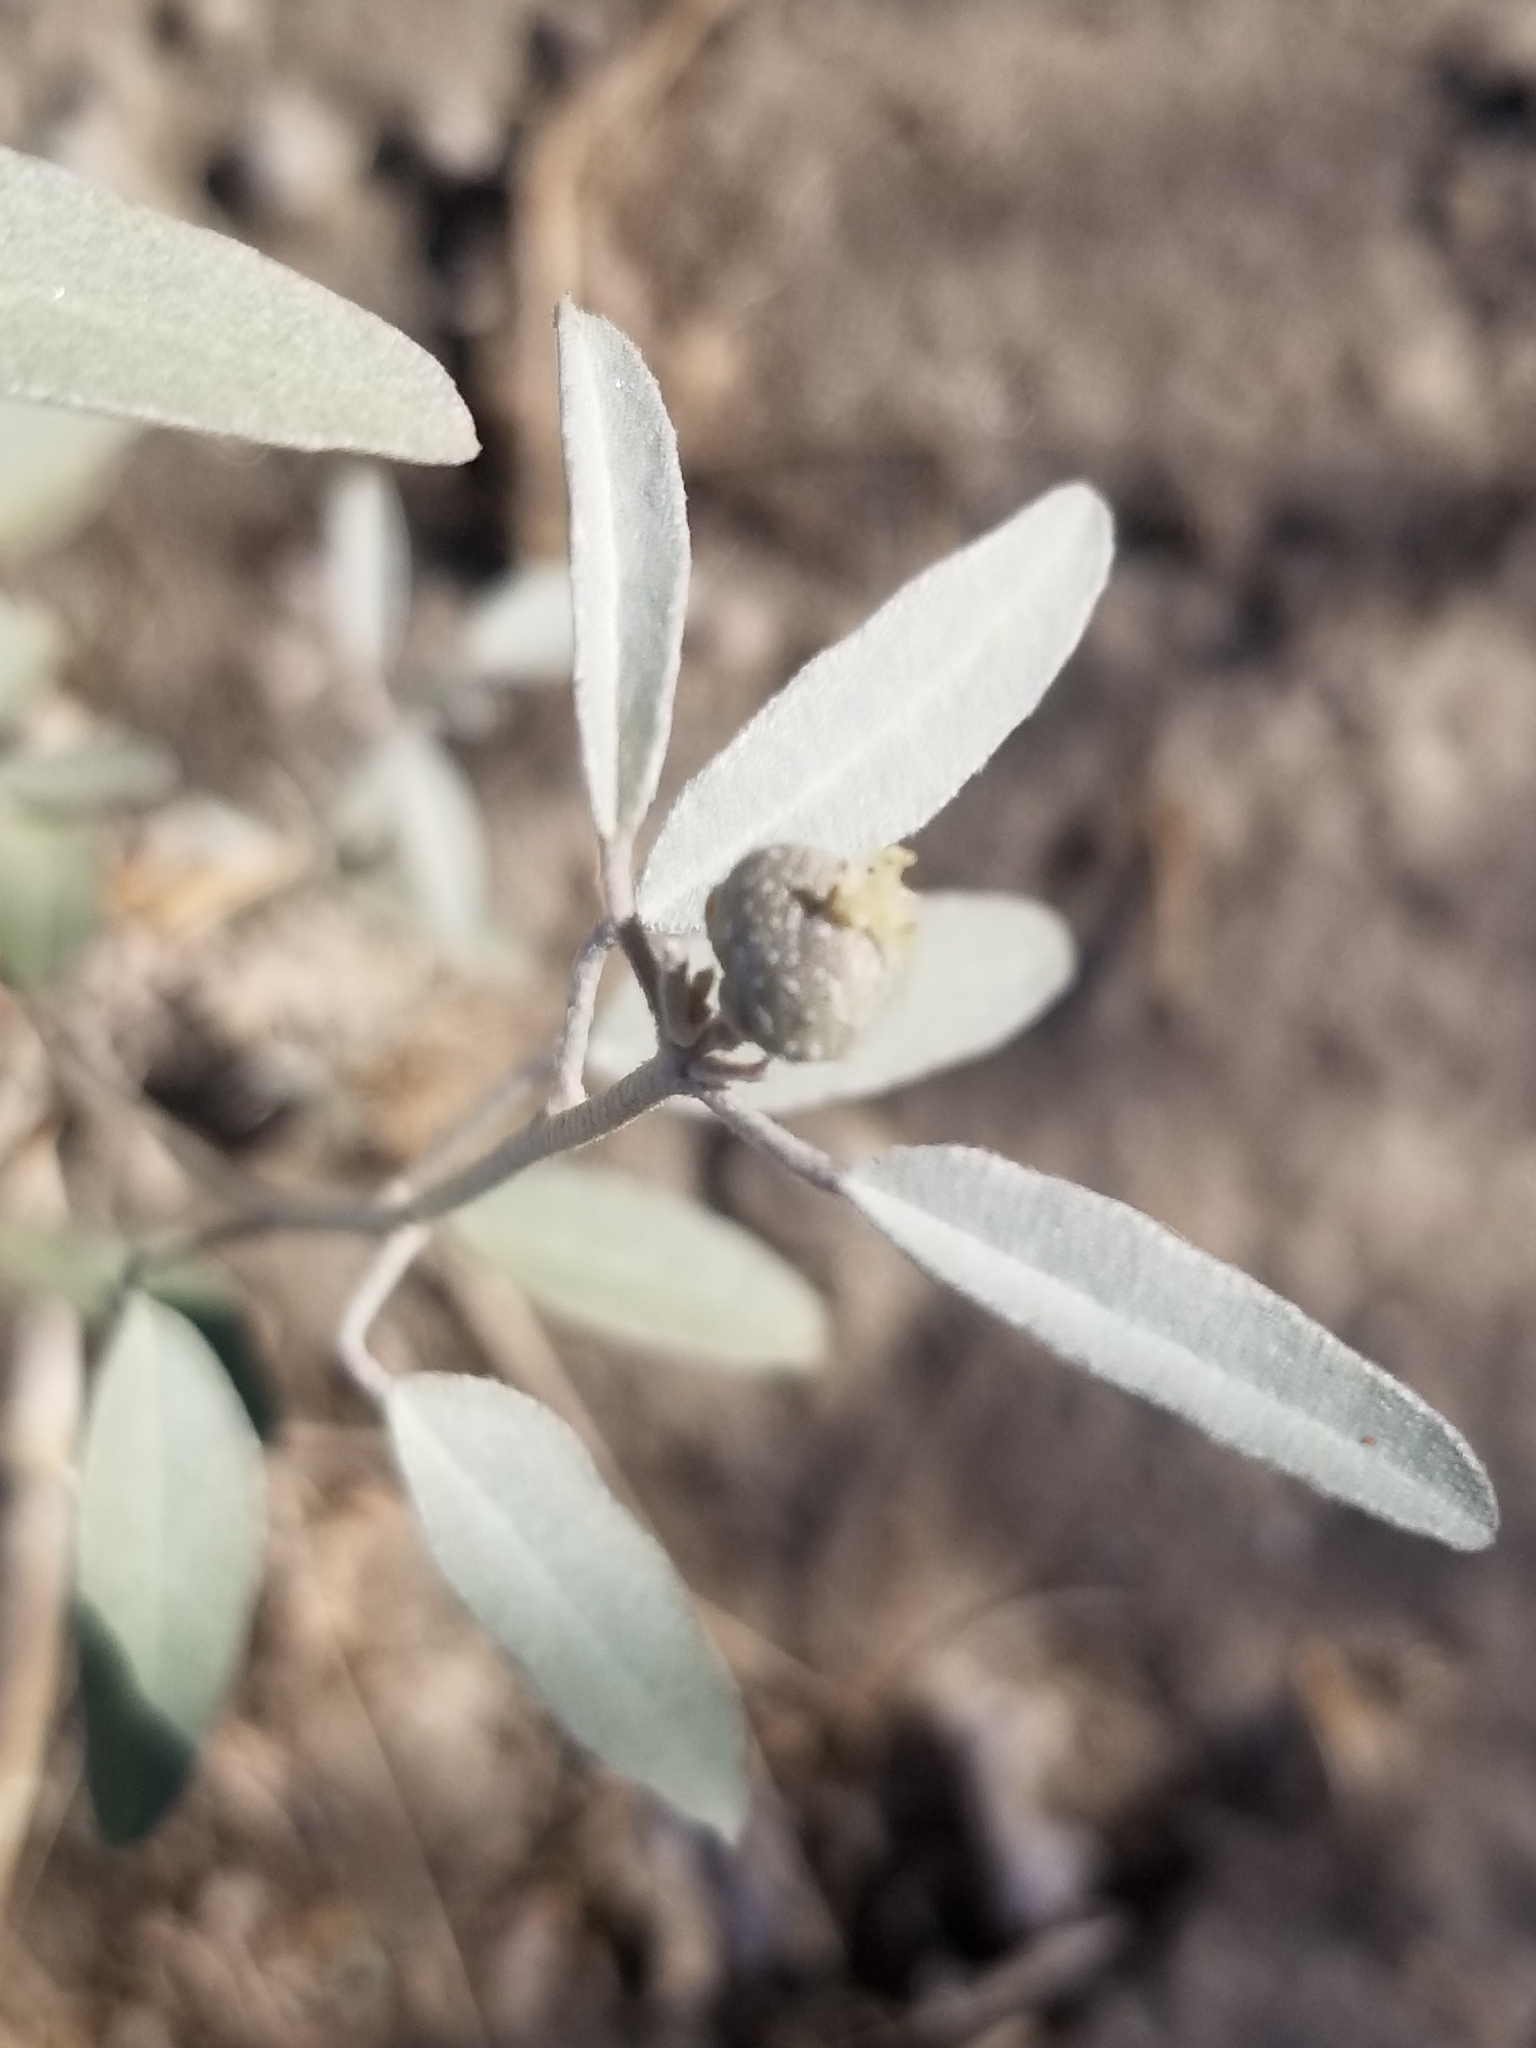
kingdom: Plantae
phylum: Tracheophyta
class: Magnoliopsida
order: Malpighiales
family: Euphorbiaceae
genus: Croton
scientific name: Croton californicus
